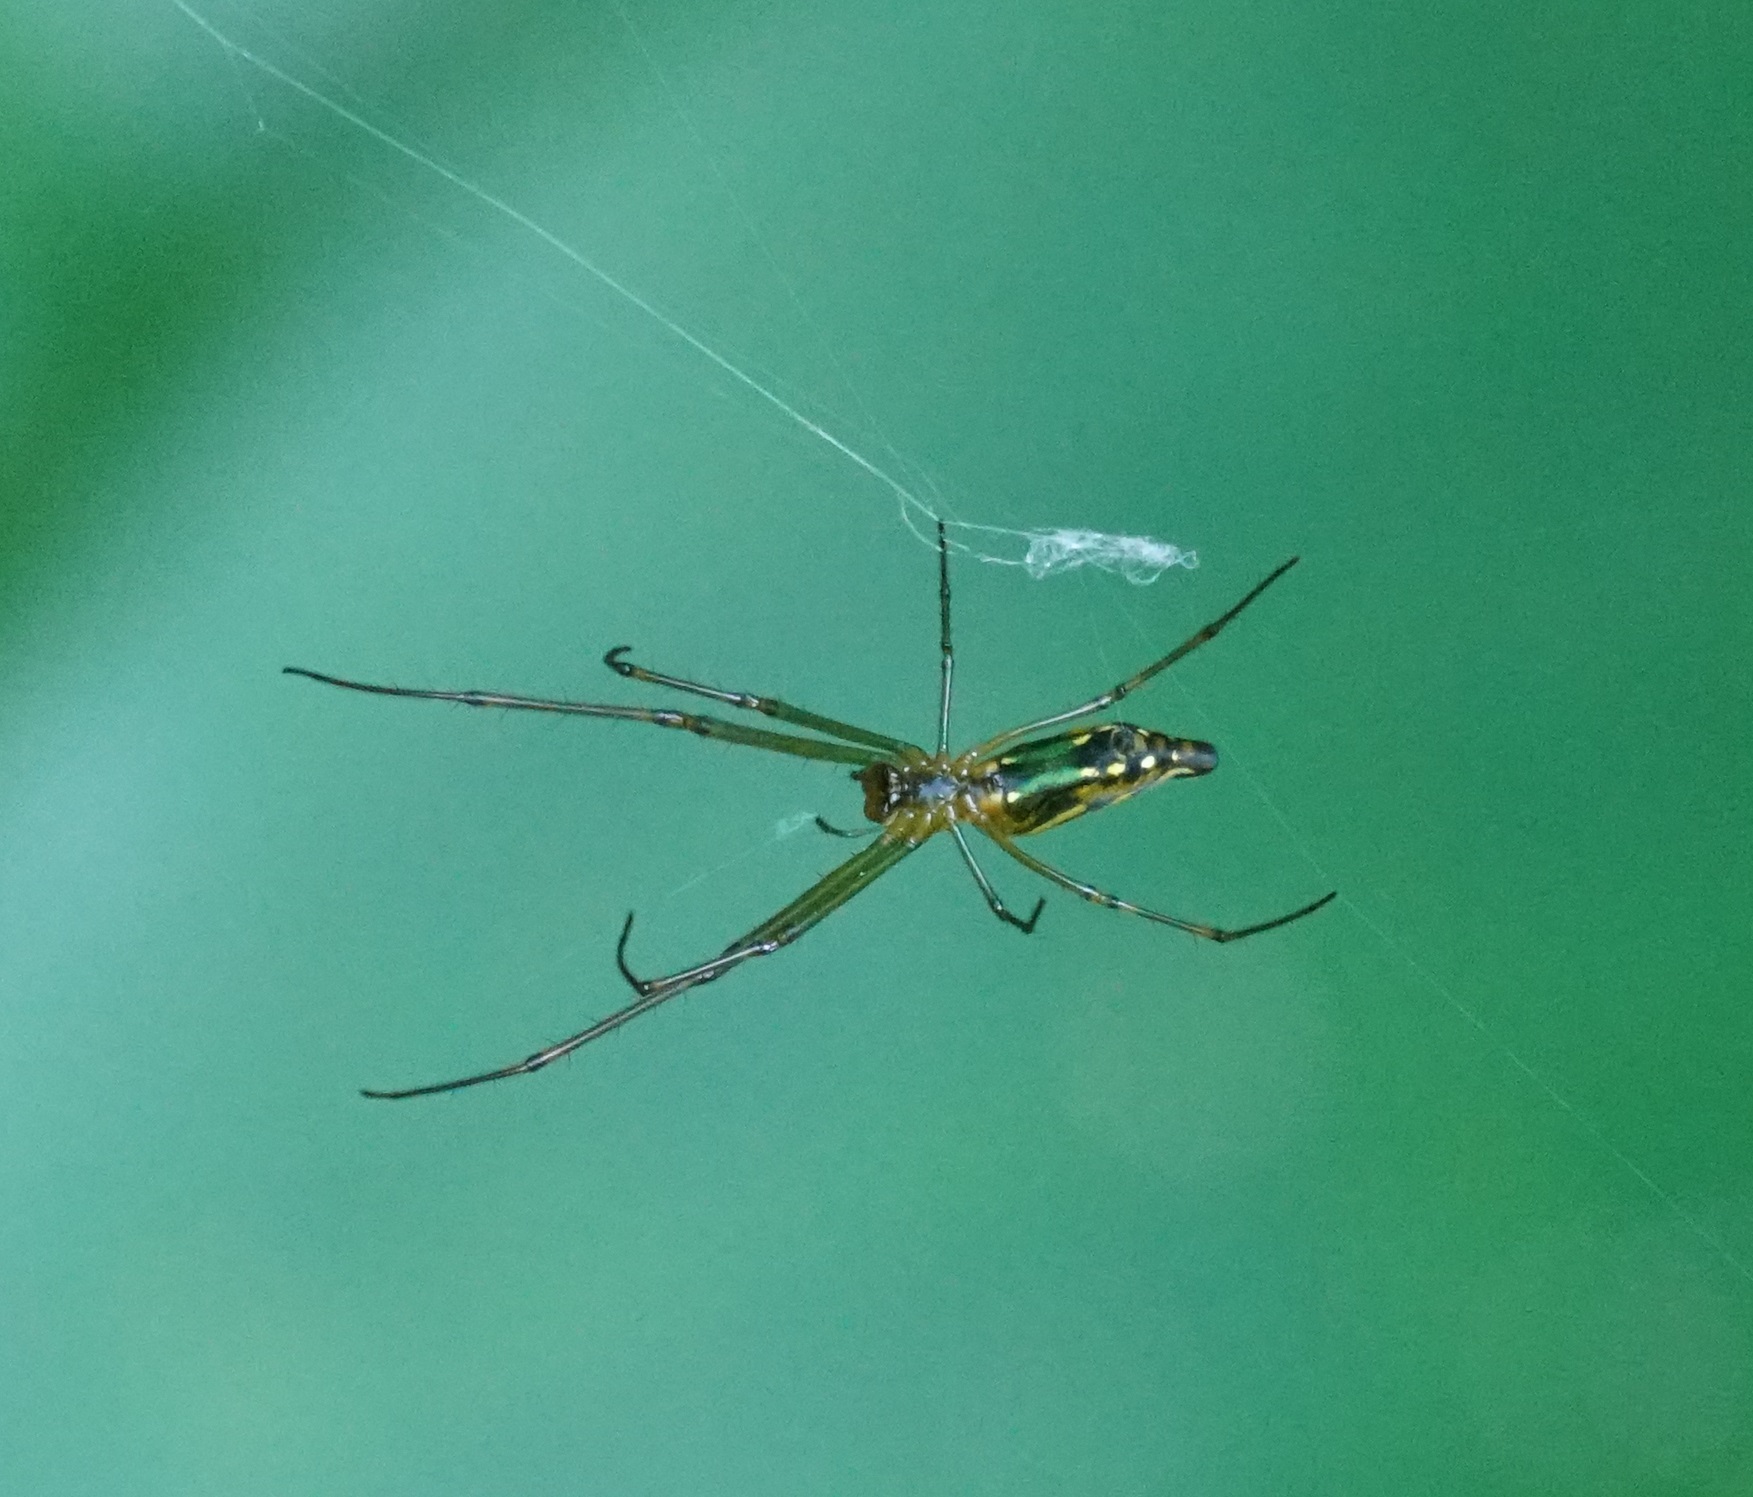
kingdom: Animalia
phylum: Arthropoda
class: Arachnida
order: Araneae
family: Tetragnathidae
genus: Leucauge
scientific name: Leucauge decorata
